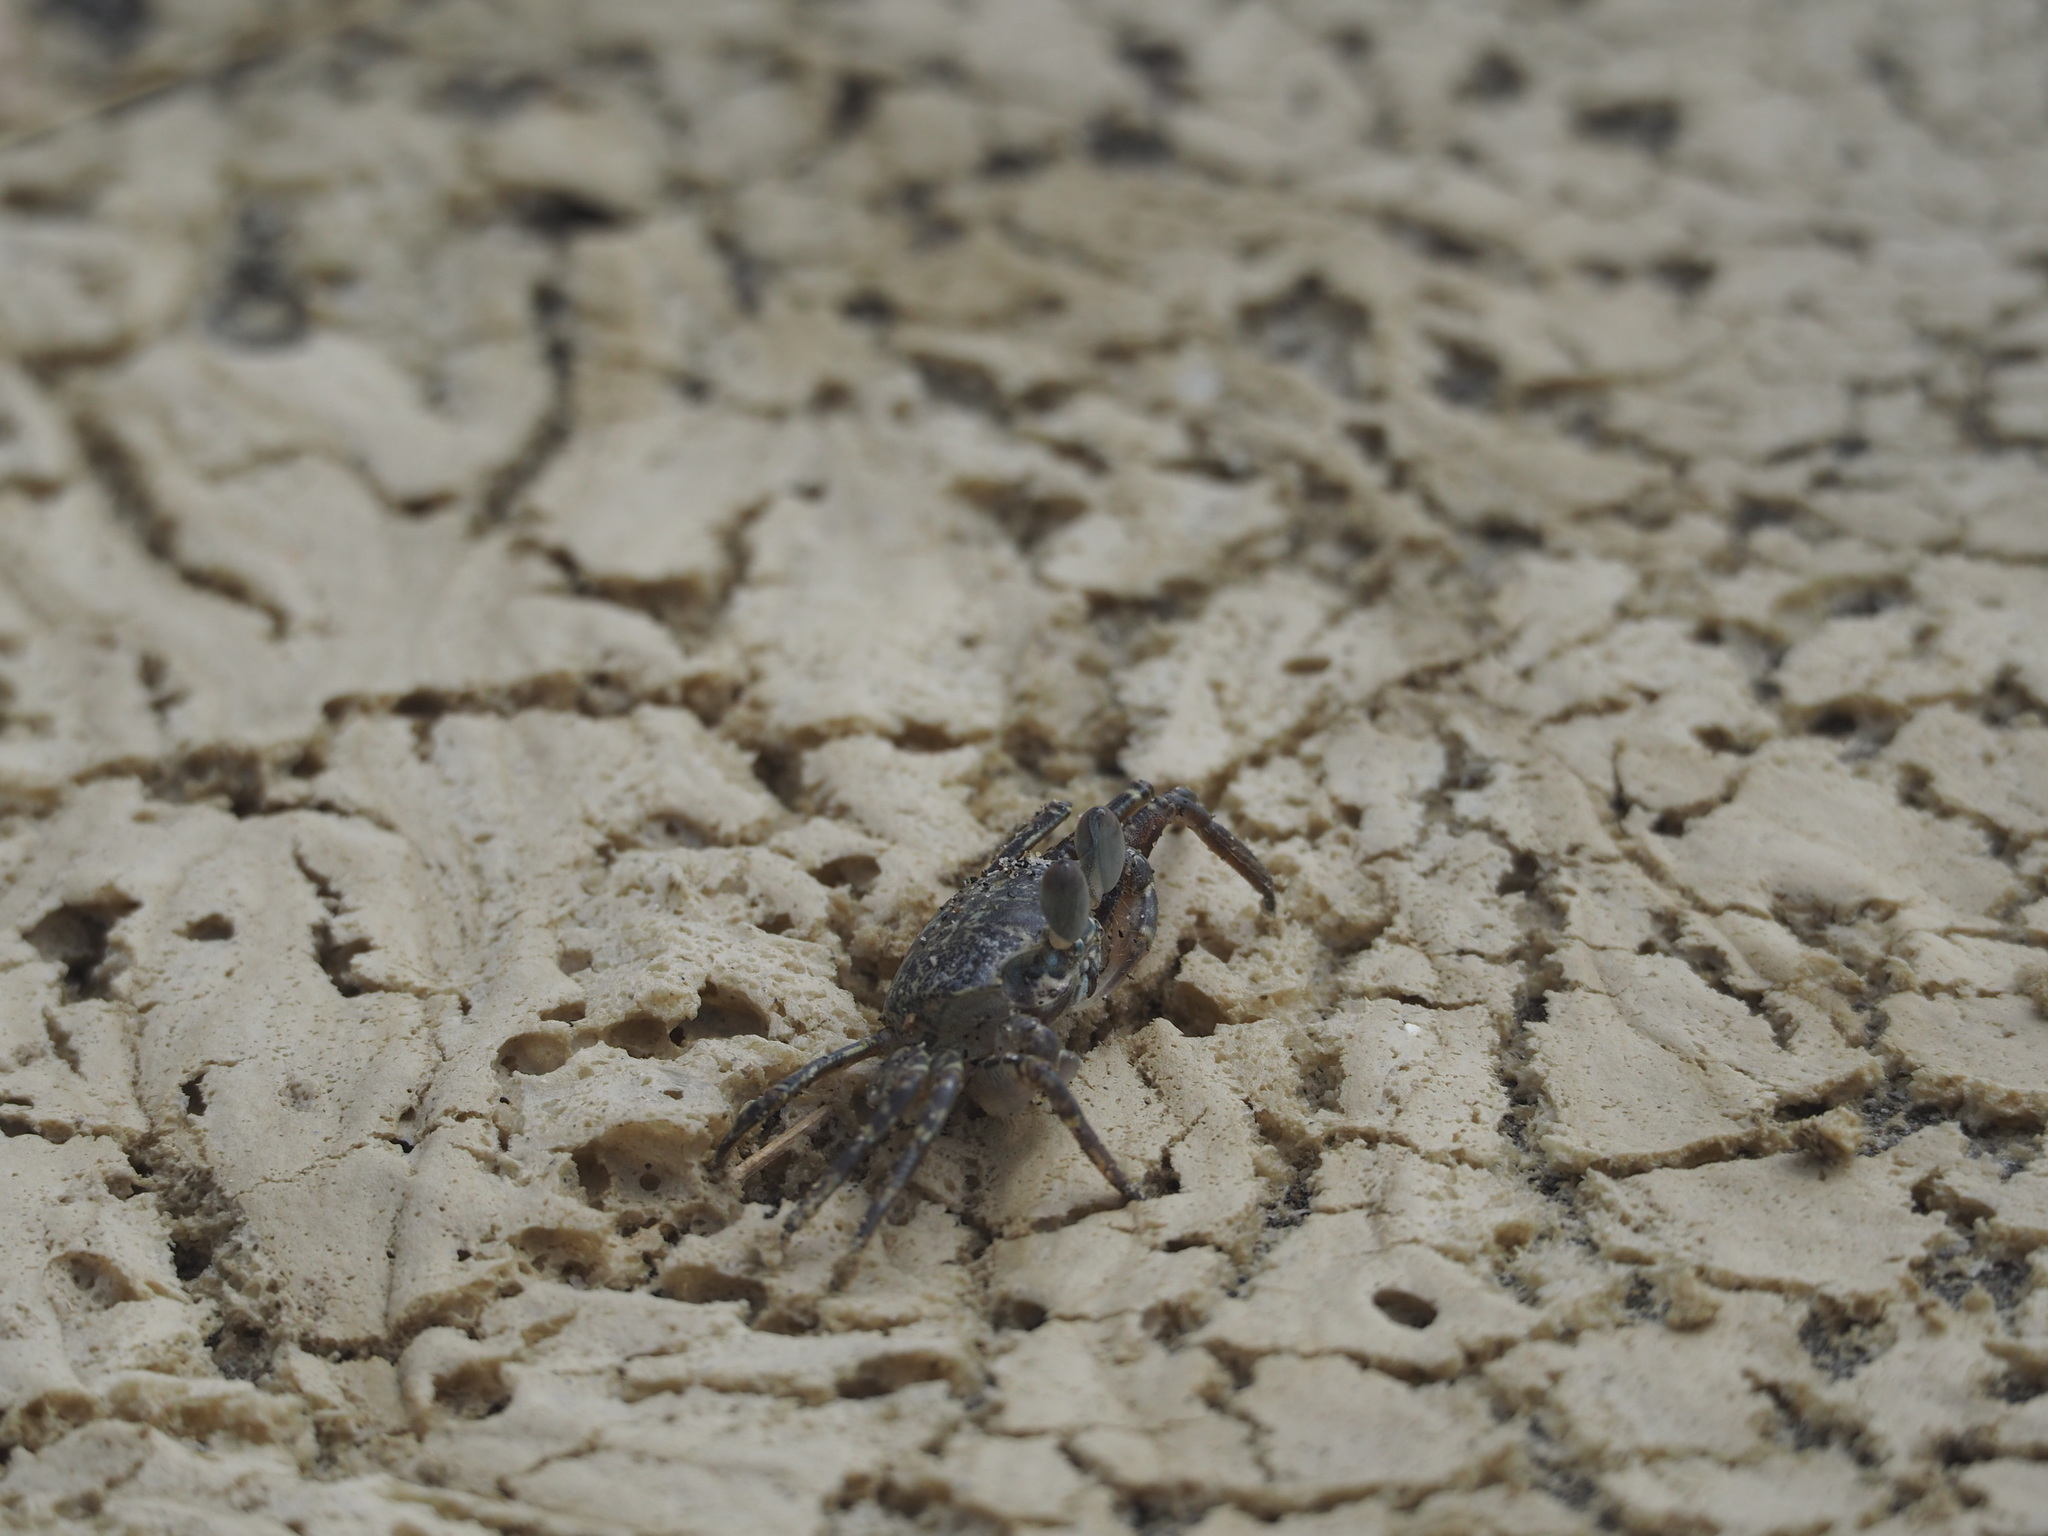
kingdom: Animalia
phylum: Arthropoda
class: Malacostraca
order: Decapoda
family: Ocypodidae
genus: Ocypode
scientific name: Ocypode ceratophthalmus
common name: Indo-pacific ghost crab
